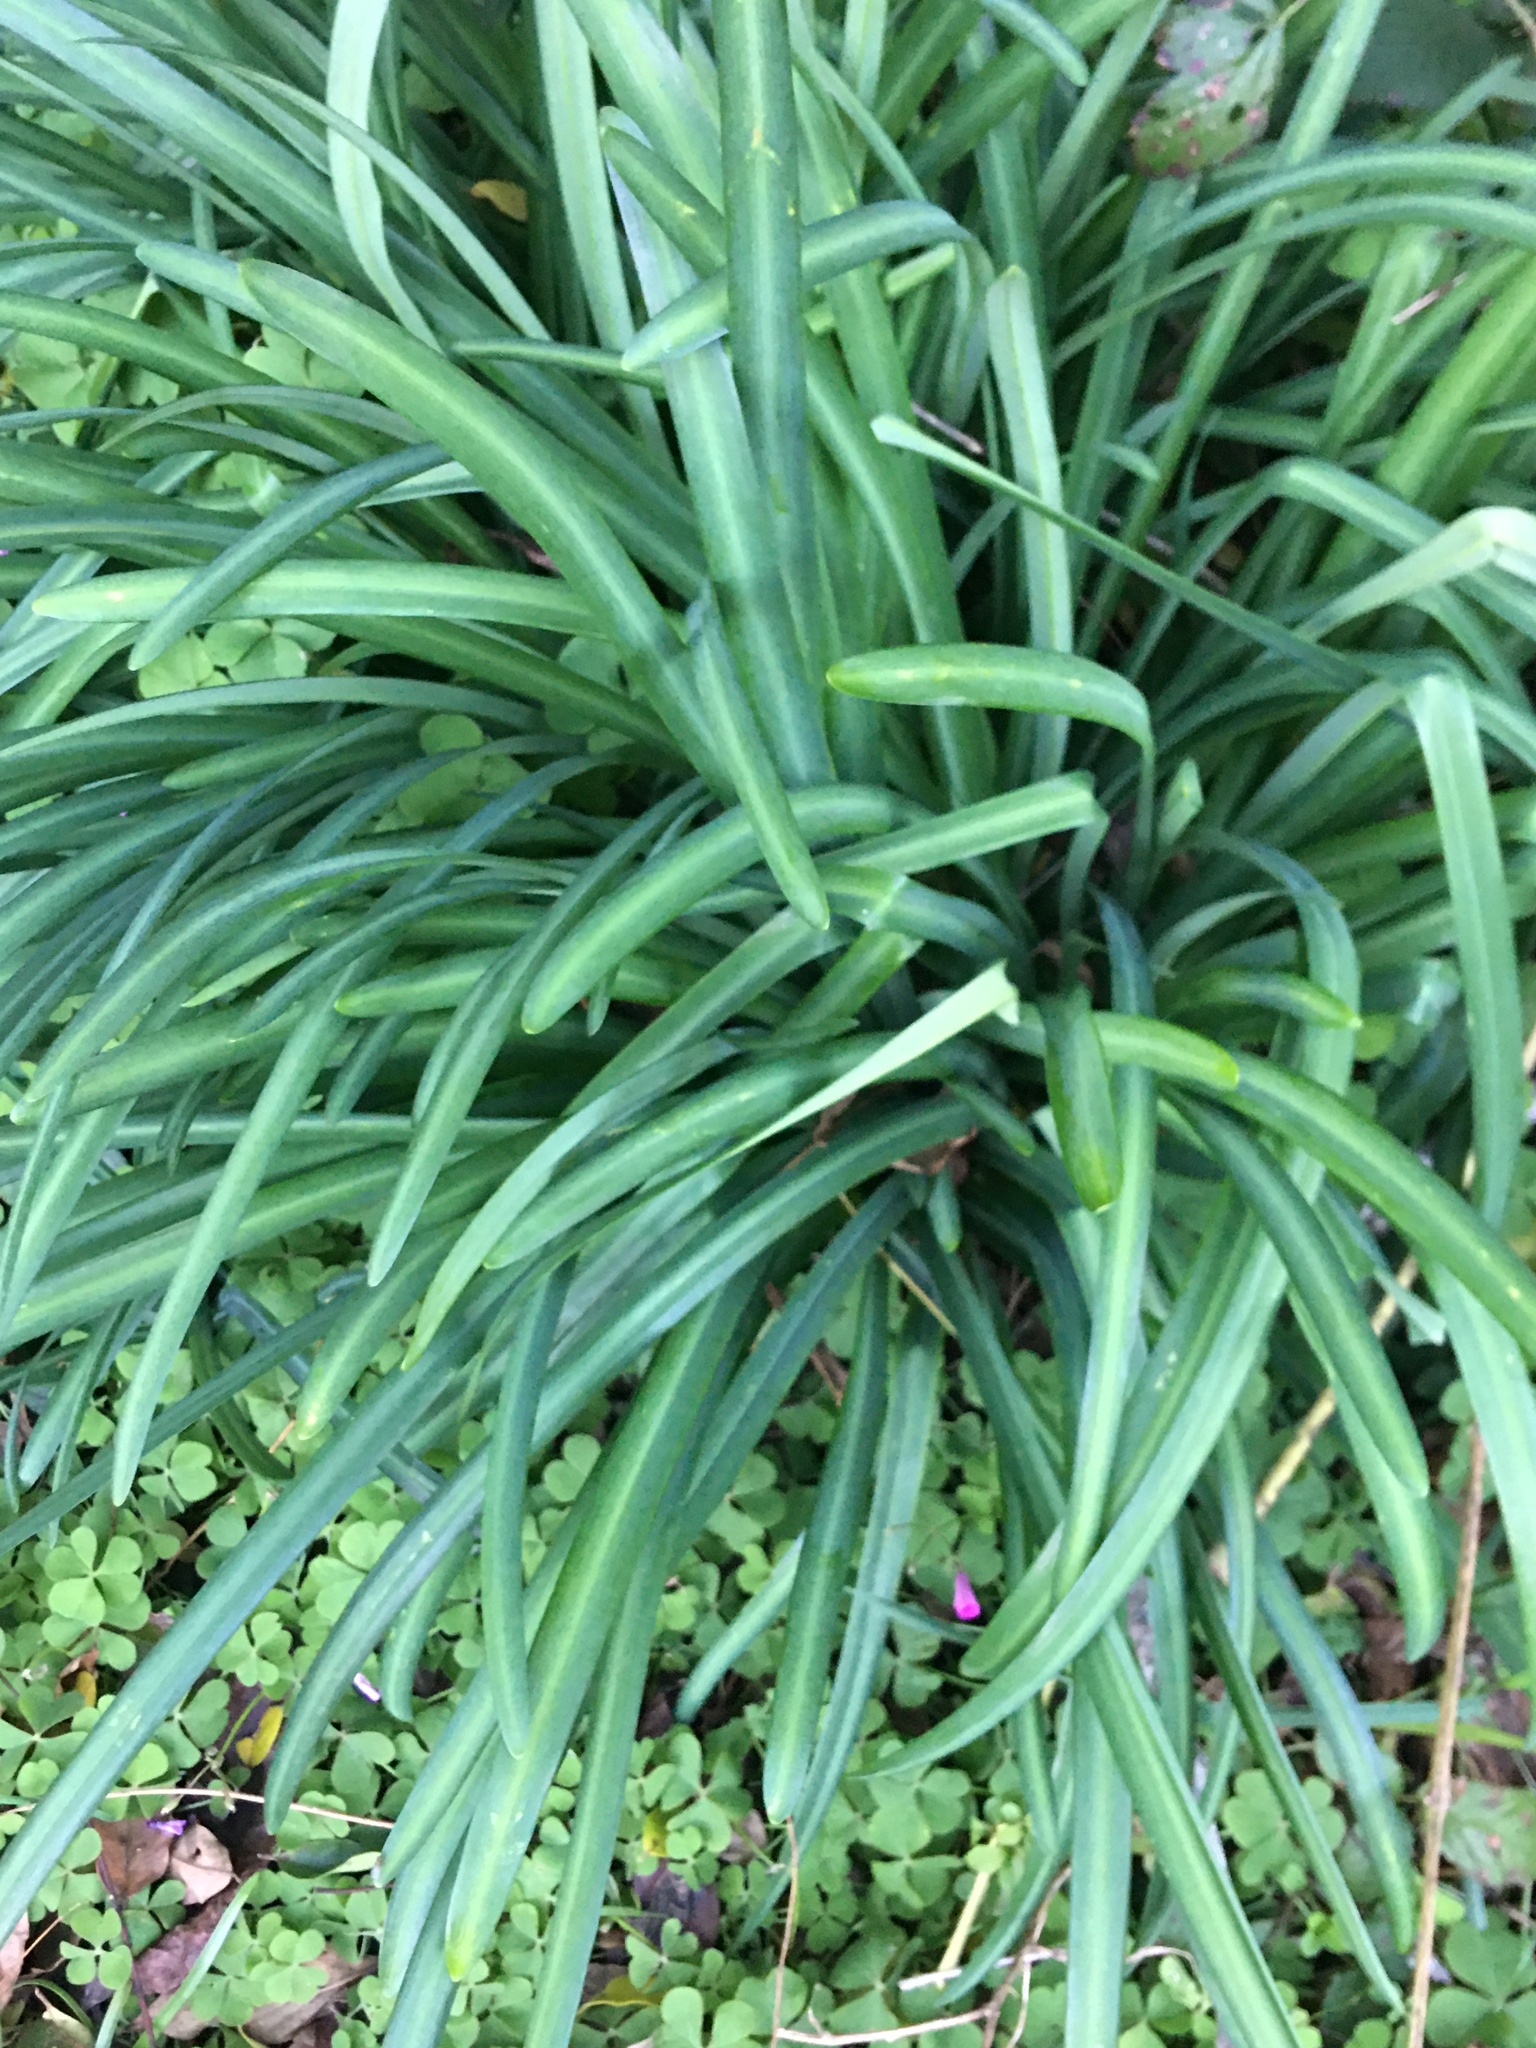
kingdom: Plantae
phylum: Tracheophyta
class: Liliopsida
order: Asparagales
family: Amaryllidaceae
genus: Lycoris
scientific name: Lycoris radiata
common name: Red spider lily
